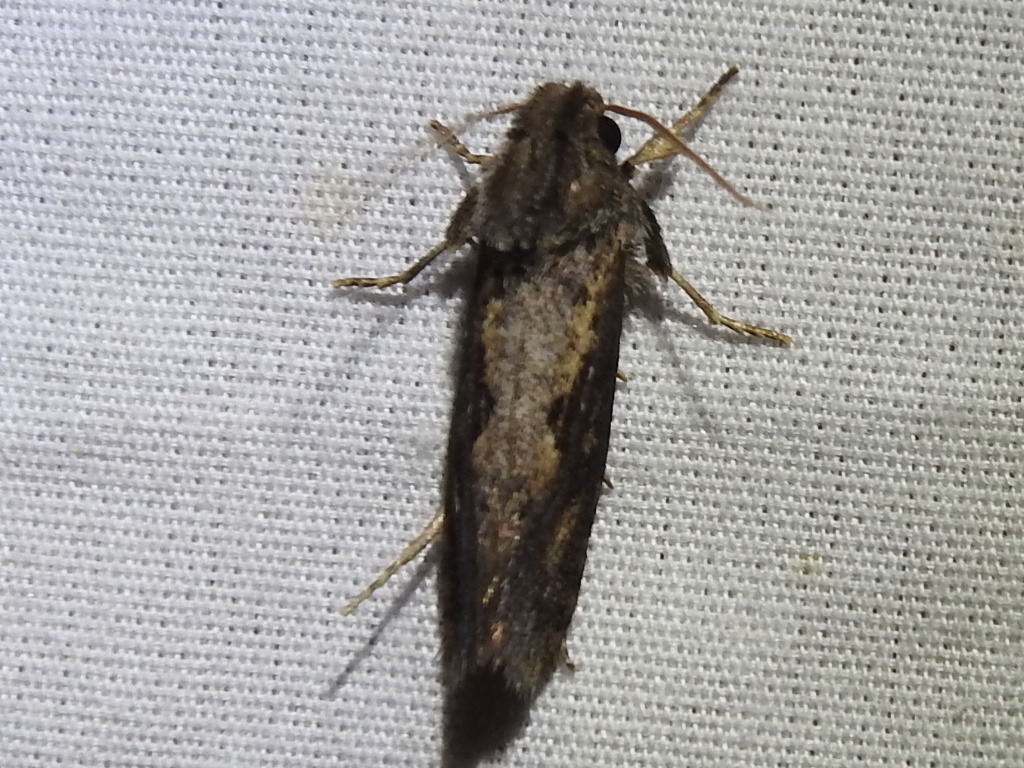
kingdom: Animalia
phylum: Arthropoda
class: Insecta
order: Lepidoptera
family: Tineidae
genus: Acrolophus
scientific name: Acrolophus popeanella
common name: Clemens' grass tubeworm moth
